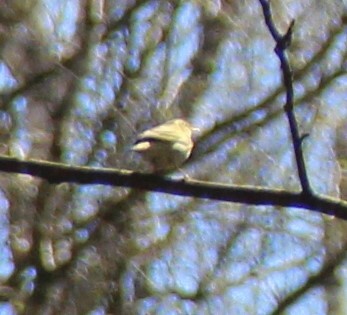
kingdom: Animalia
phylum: Chordata
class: Aves
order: Passeriformes
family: Phylloscopidae
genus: Phylloscopus
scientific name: Phylloscopus trochilus
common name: Willow warbler
